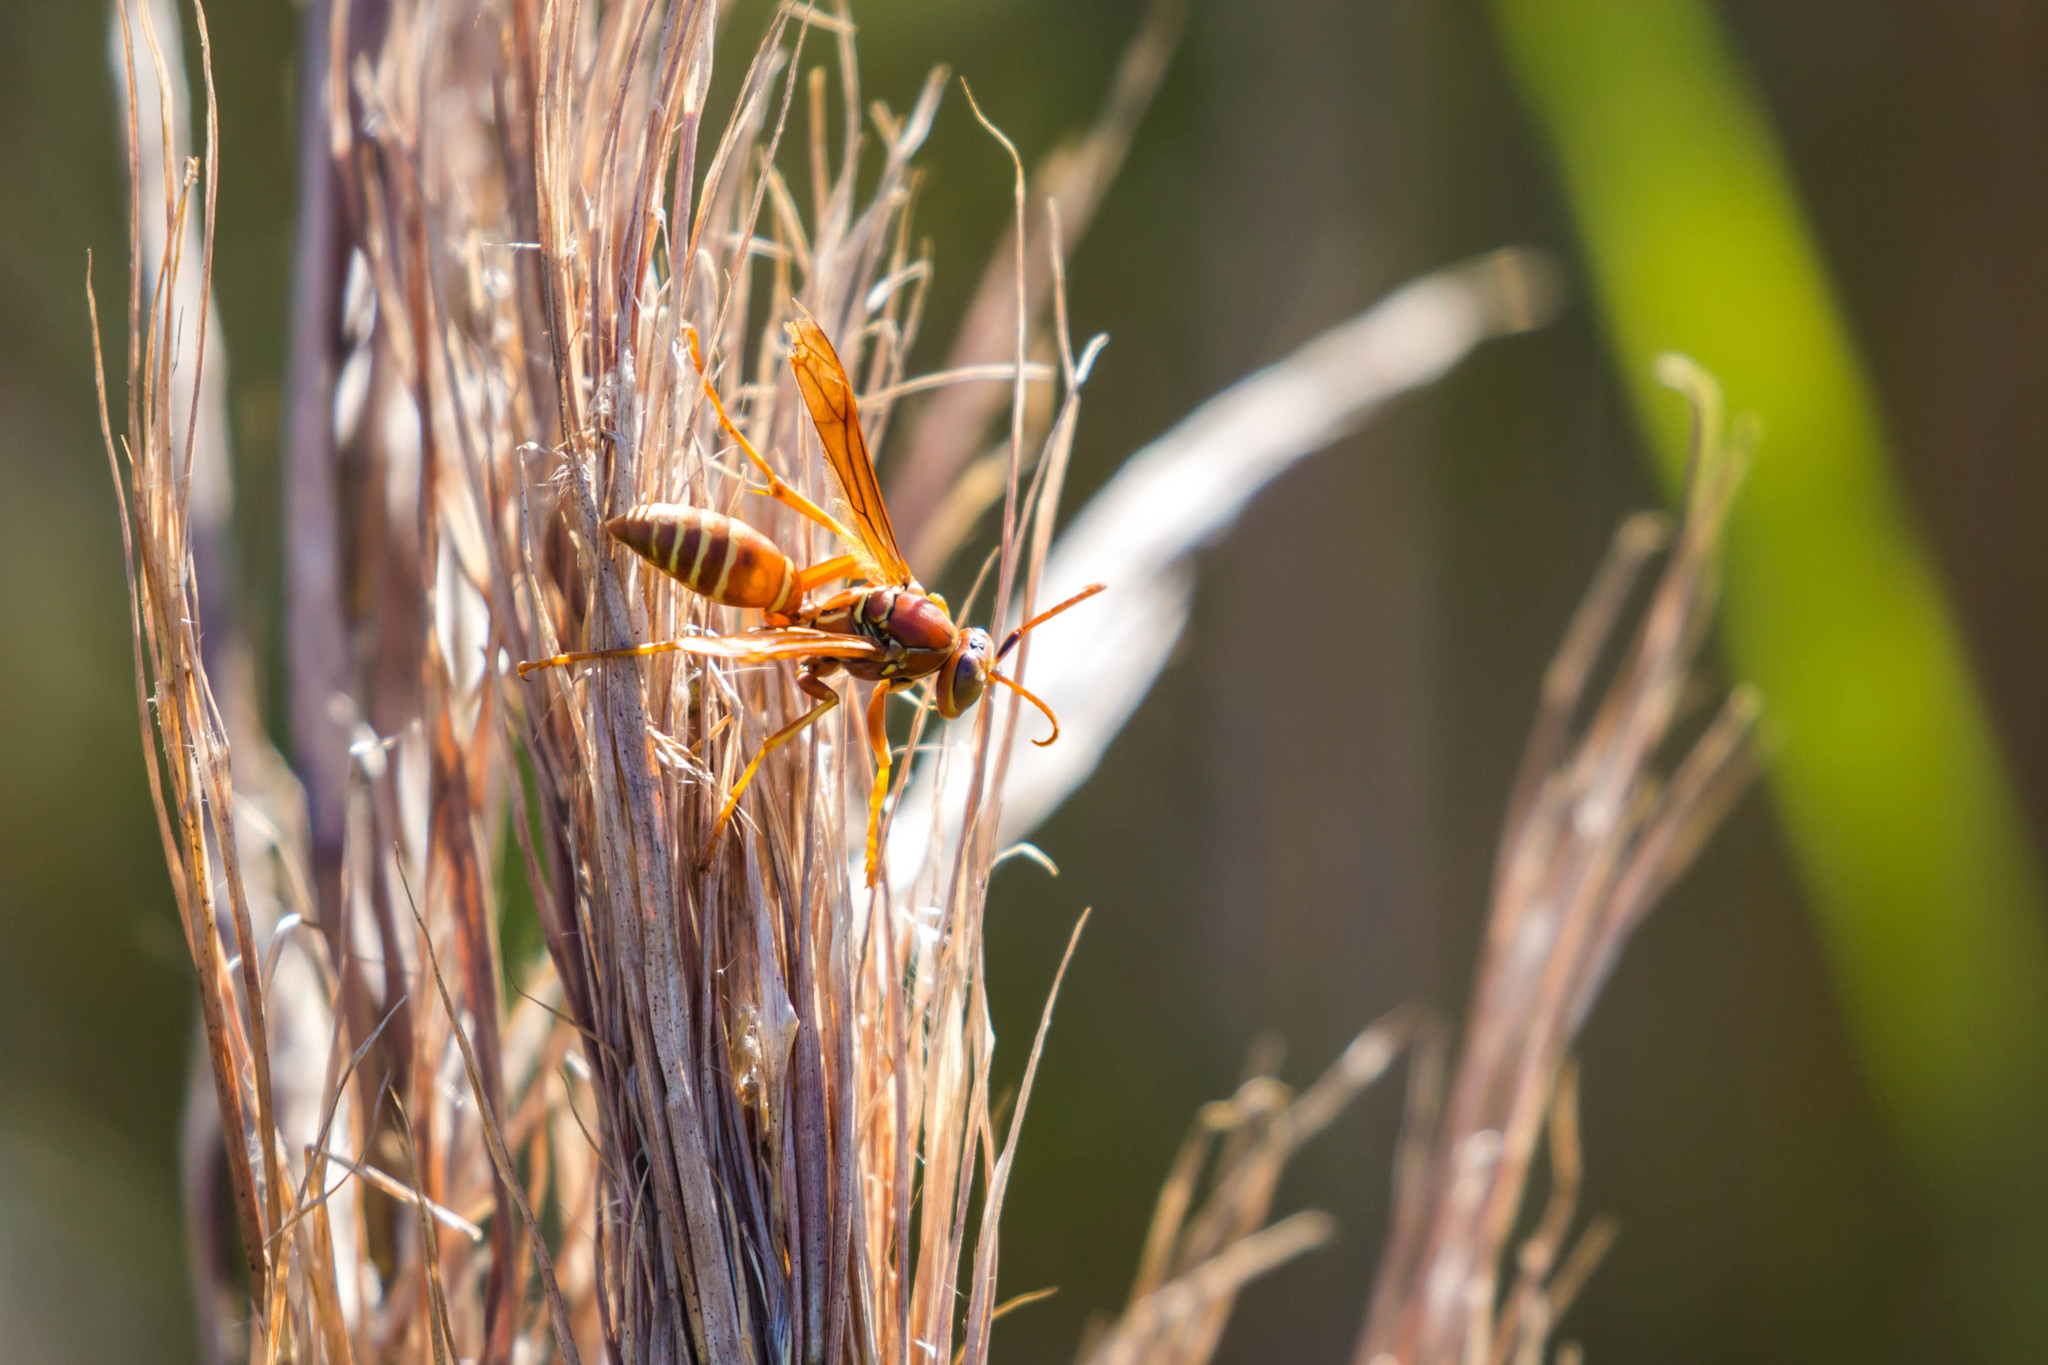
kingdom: Animalia
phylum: Arthropoda
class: Insecta
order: Hymenoptera
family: Eumenidae
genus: Polistes
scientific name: Polistes bellicosus
